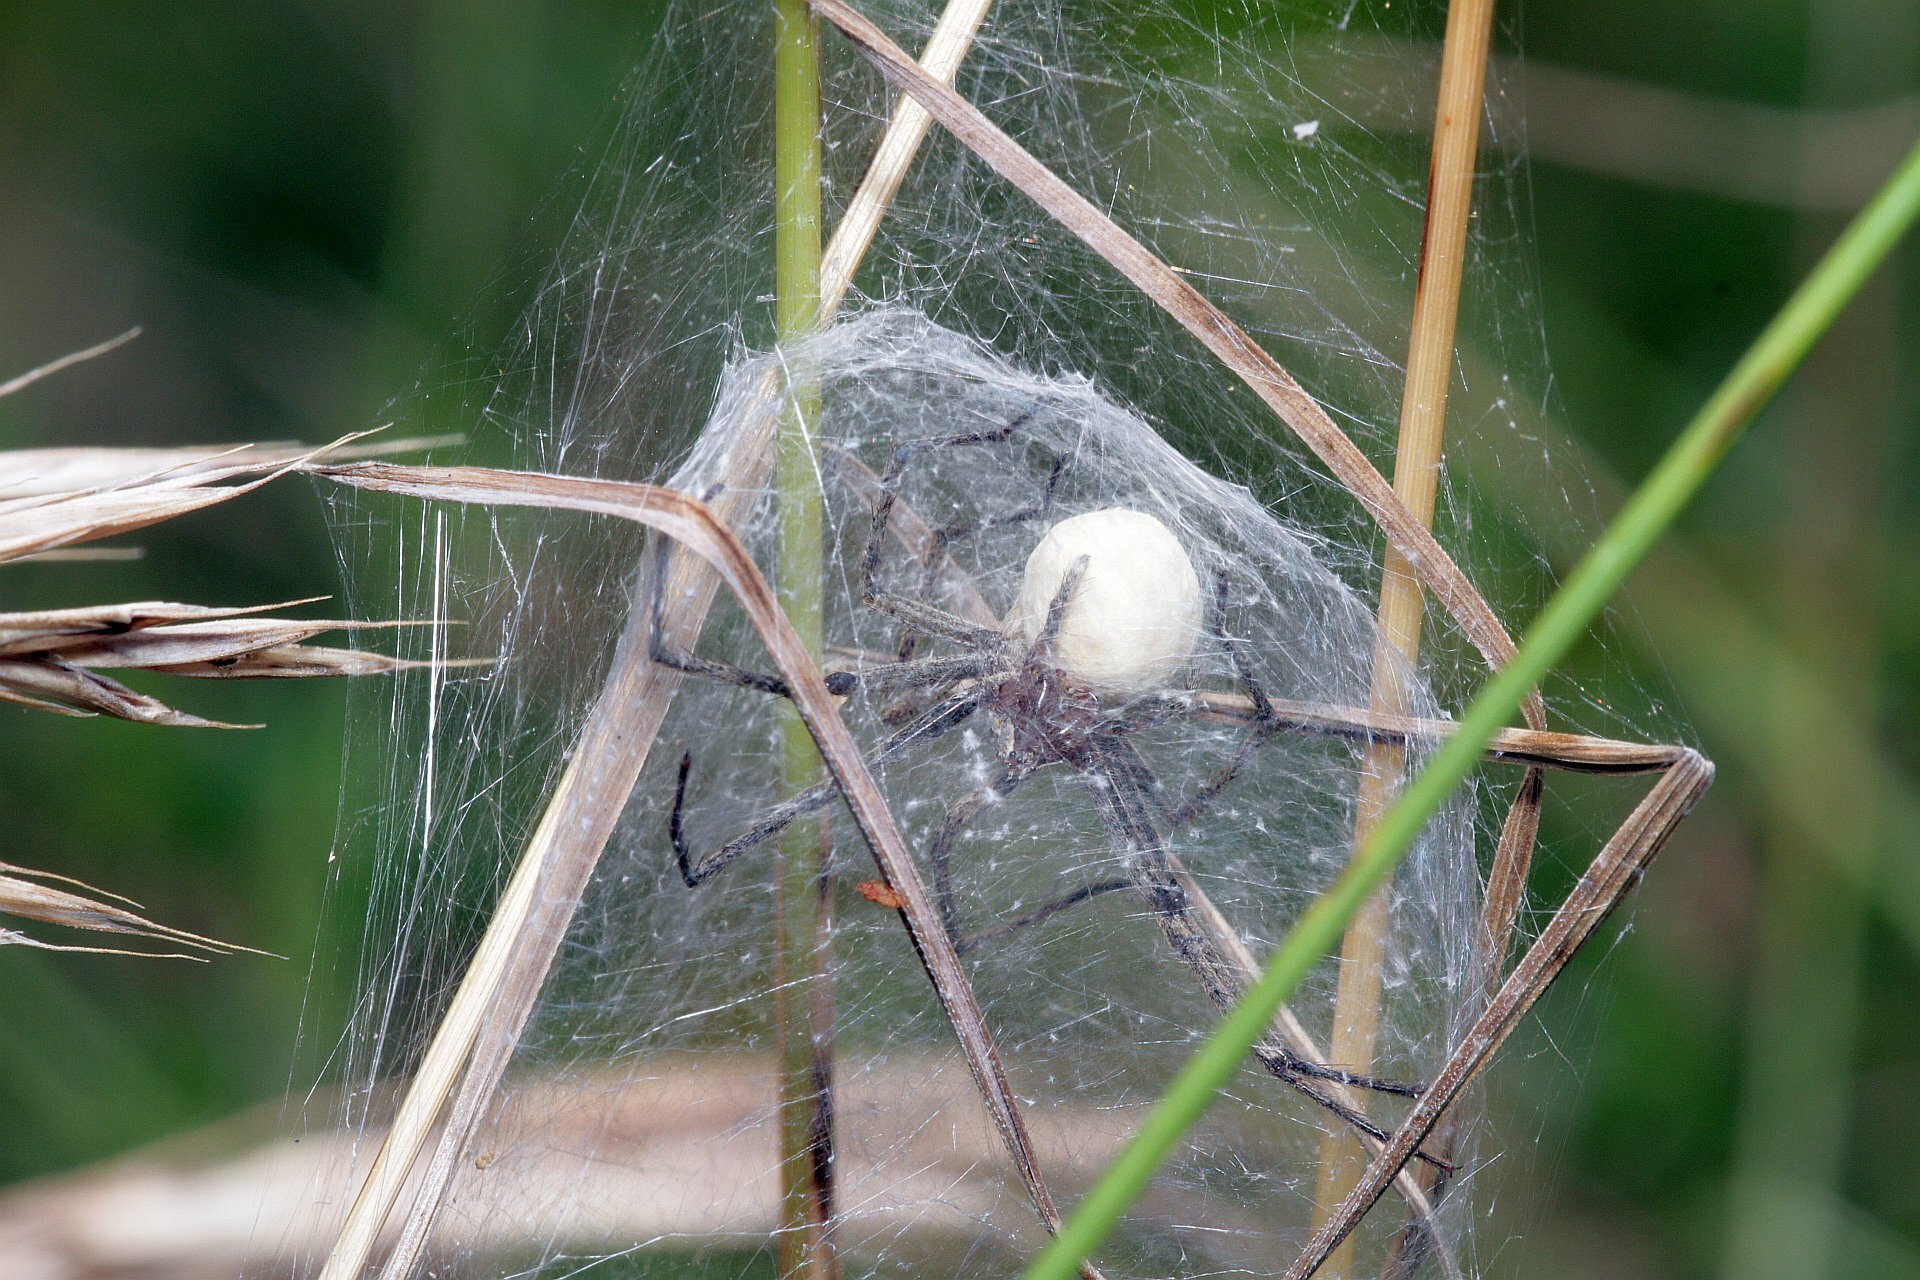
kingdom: Animalia
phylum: Arthropoda
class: Arachnida
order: Araneae
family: Pisauridae
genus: Pisaura
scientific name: Pisaura mirabilis
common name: Tent spider
